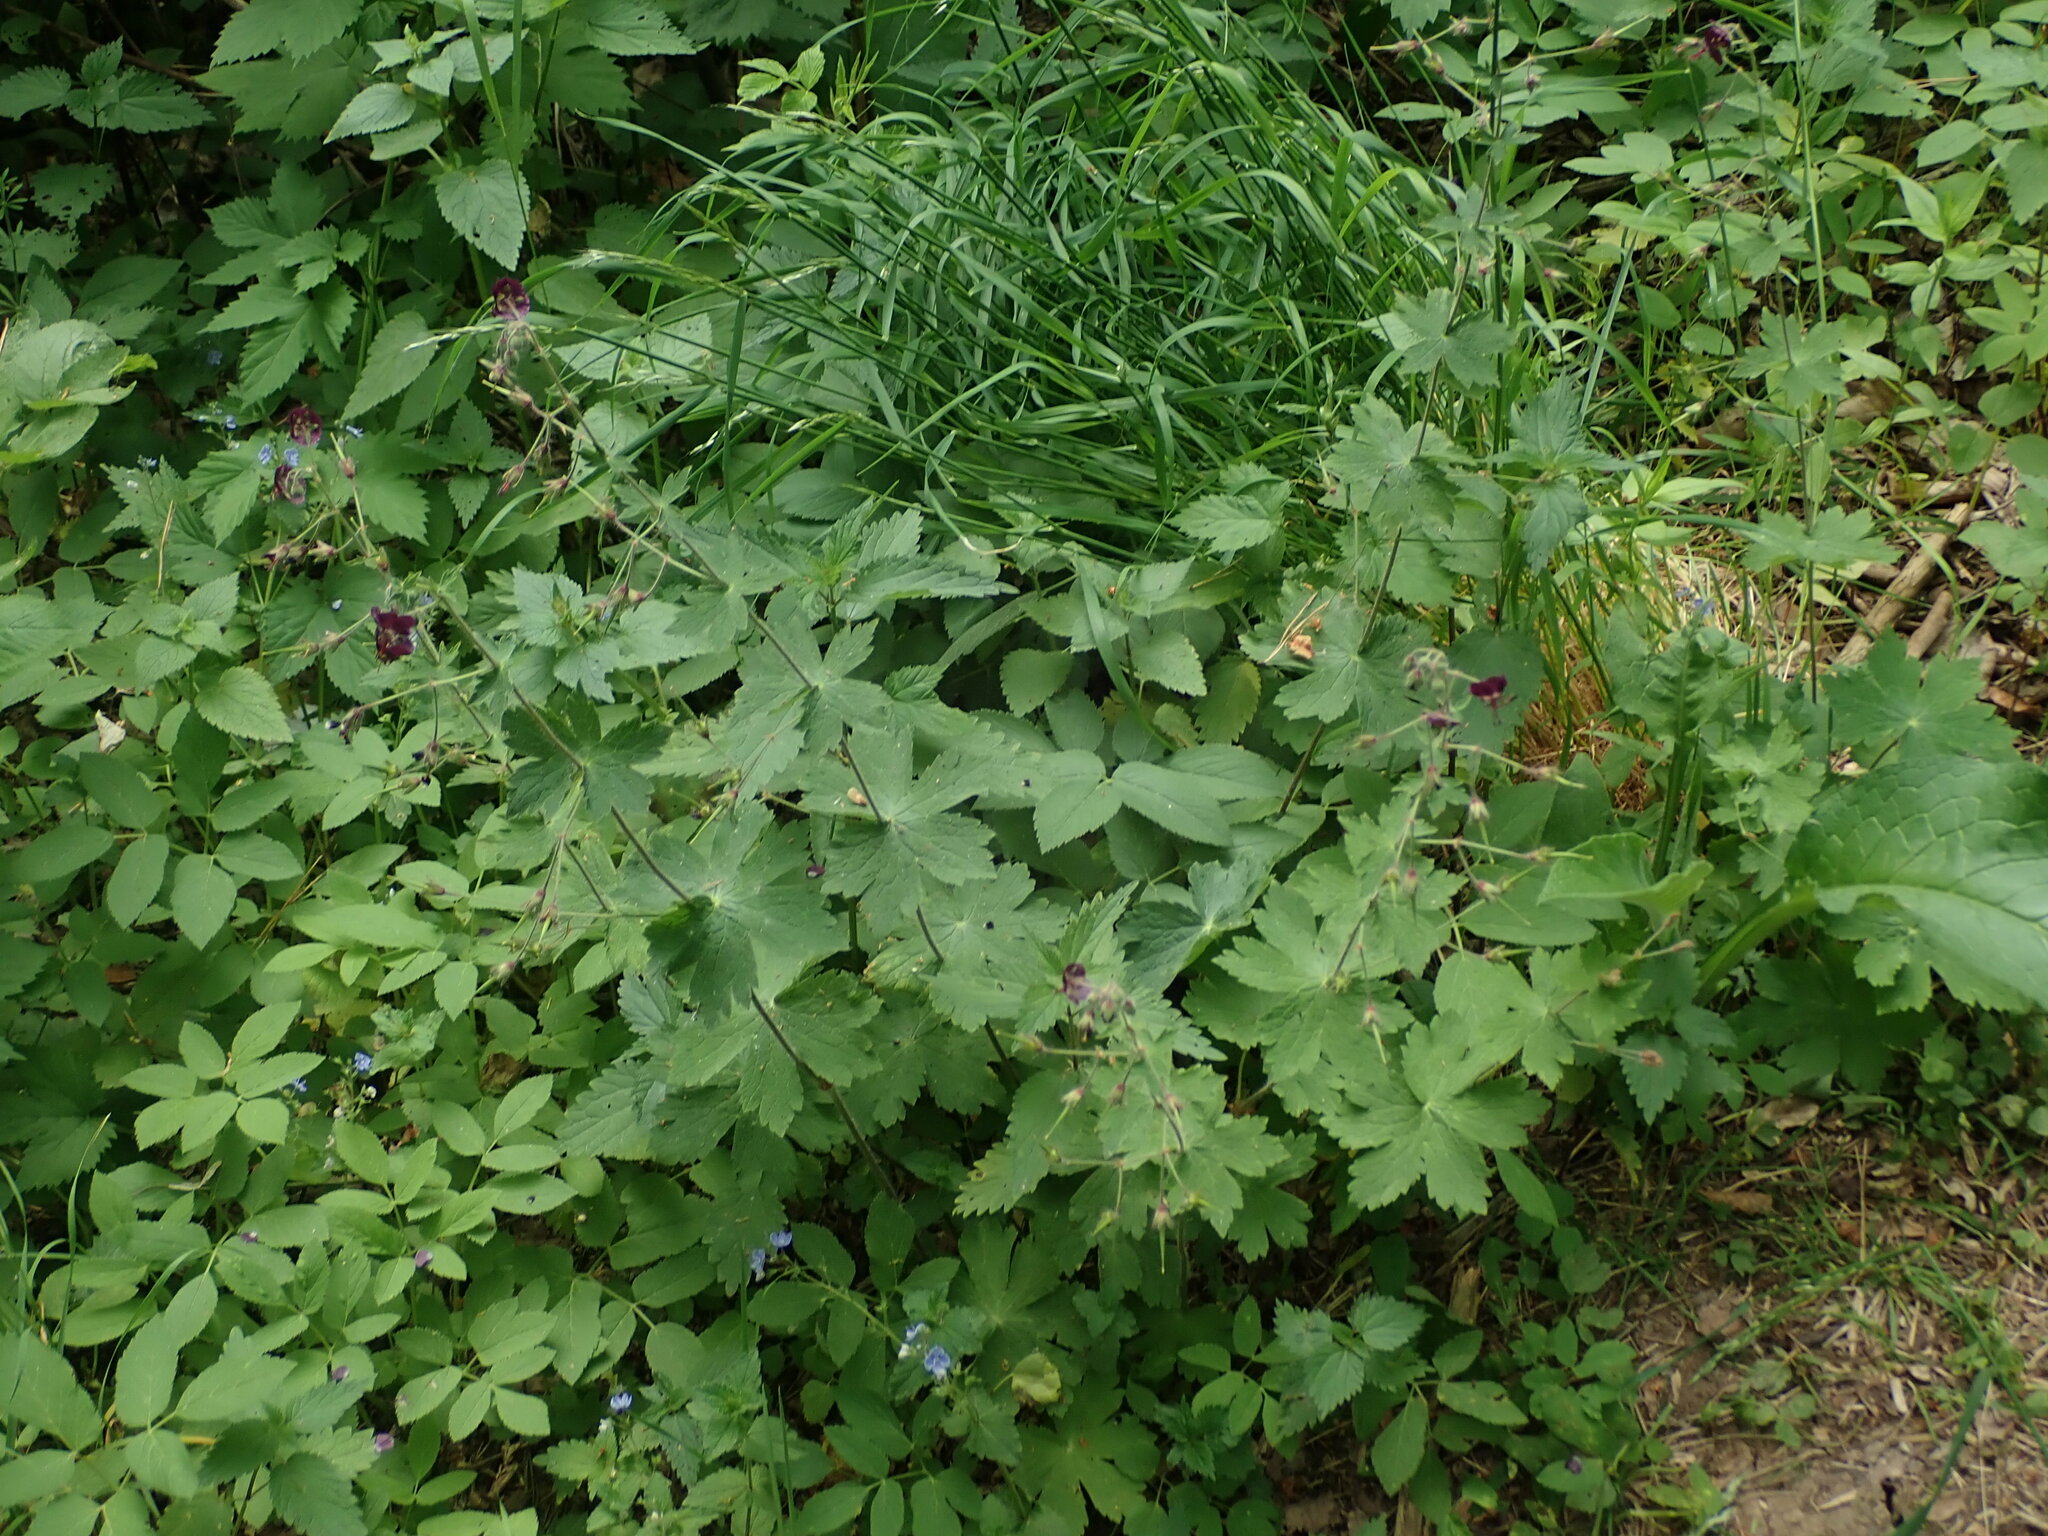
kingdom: Plantae
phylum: Tracheophyta
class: Magnoliopsida
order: Geraniales
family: Geraniaceae
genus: Geranium
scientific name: Geranium phaeum
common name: Dusky crane's-bill
